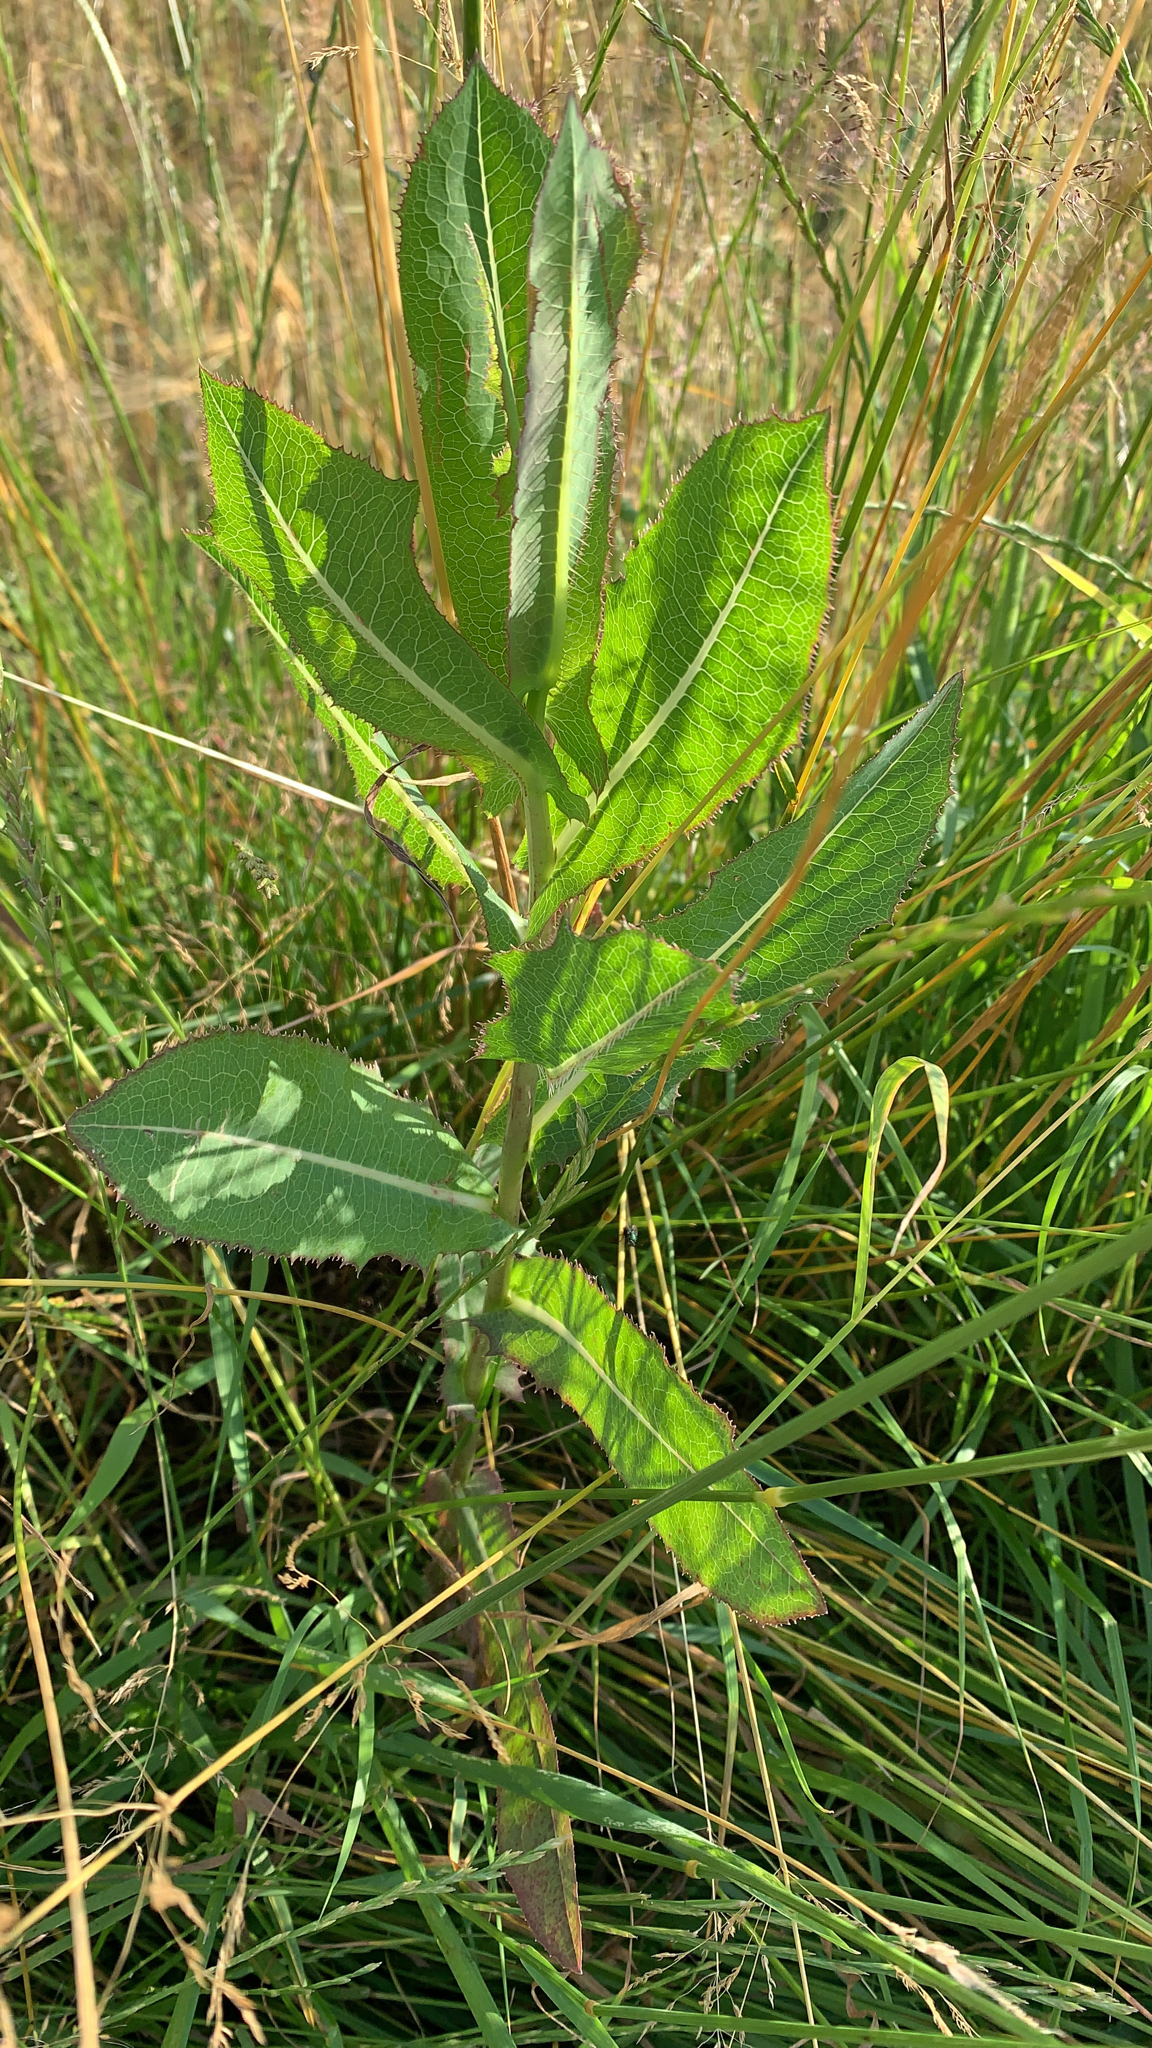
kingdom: Plantae
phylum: Tracheophyta
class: Magnoliopsida
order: Asterales
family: Asteraceae
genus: Lactuca
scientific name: Lactuca serriola
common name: Prickly lettuce
